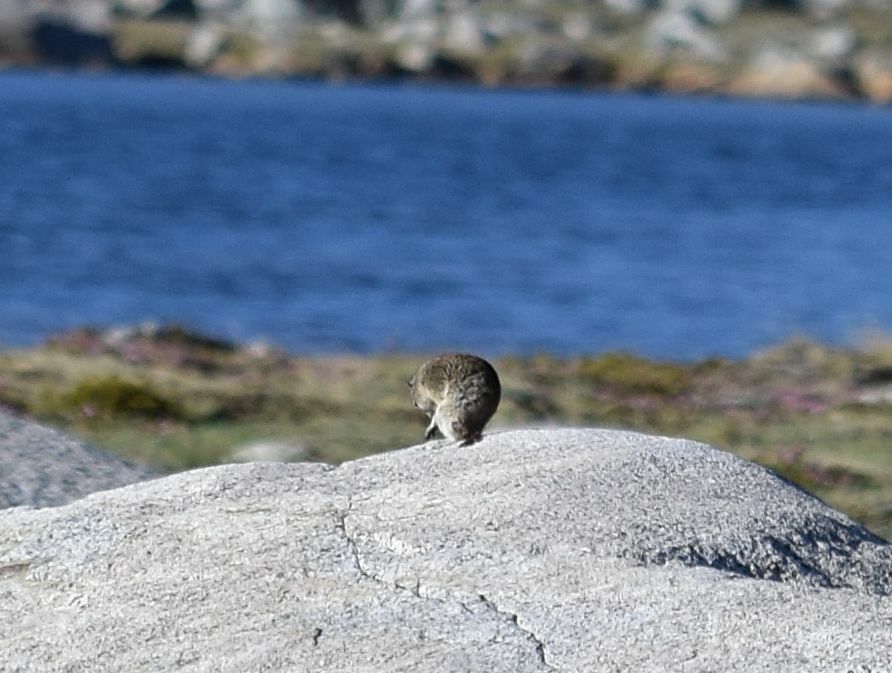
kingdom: Animalia
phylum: Chordata
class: Mammalia
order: Rodentia
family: Sciuridae
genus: Urocitellus
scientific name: Urocitellus beldingi
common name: Belding's ground squirrel
